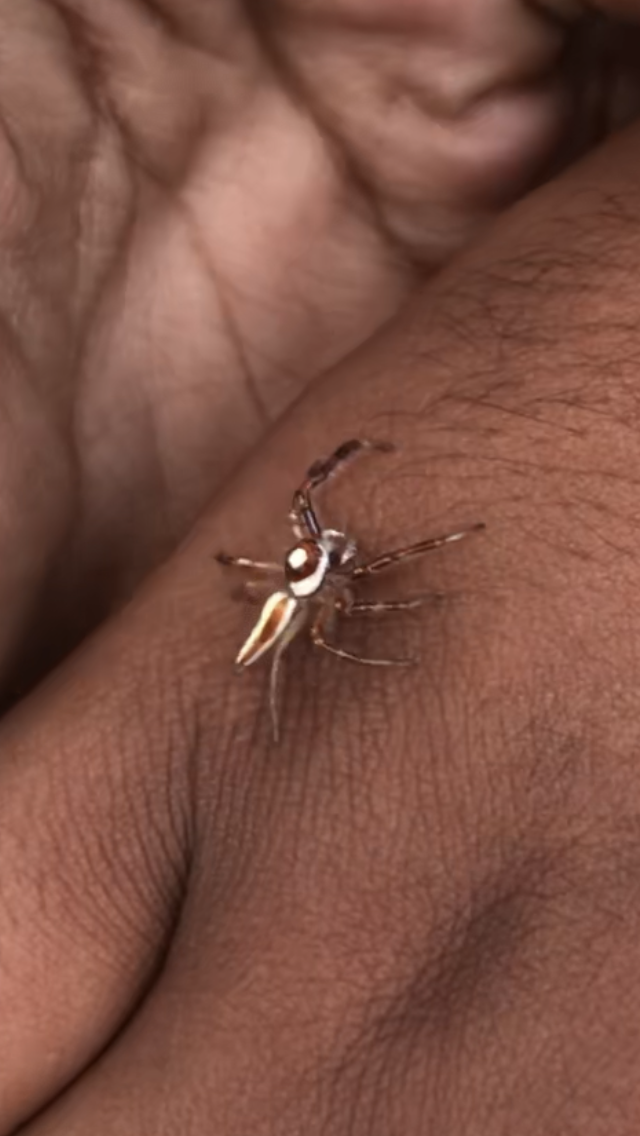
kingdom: Animalia
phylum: Arthropoda
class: Arachnida
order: Araneae
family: Salticidae
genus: Telamonia
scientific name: Telamonia dimidiata
